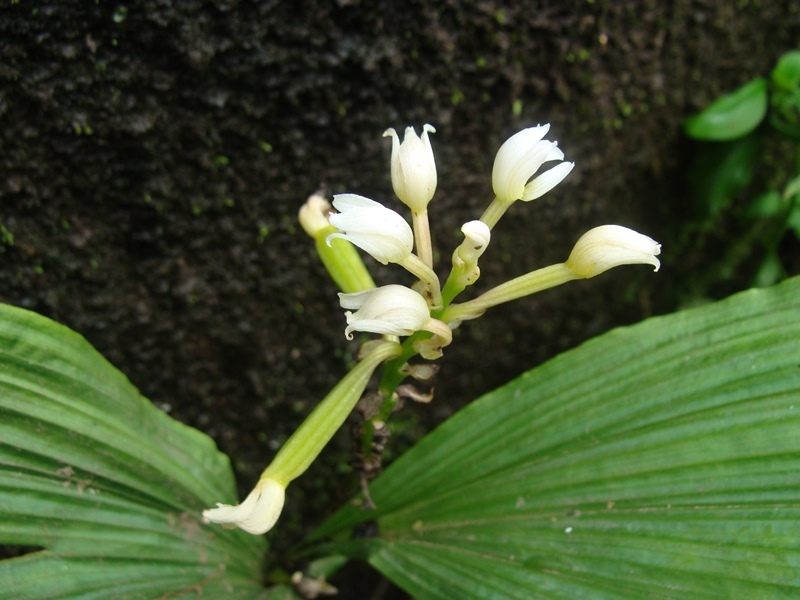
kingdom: Plantae
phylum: Tracheophyta
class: Liliopsida
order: Asparagales
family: Orchidaceae
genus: Govenia
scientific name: Govenia alba
